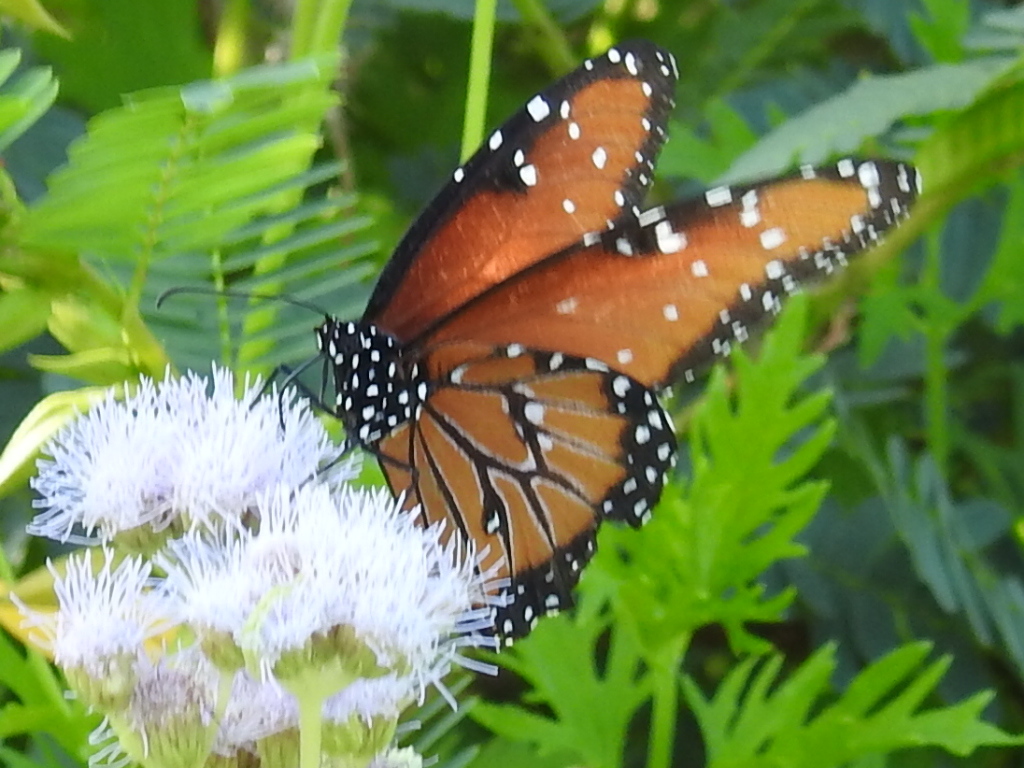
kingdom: Animalia
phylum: Arthropoda
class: Insecta
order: Lepidoptera
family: Nymphalidae
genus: Danaus
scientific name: Danaus gilippus
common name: Queen
